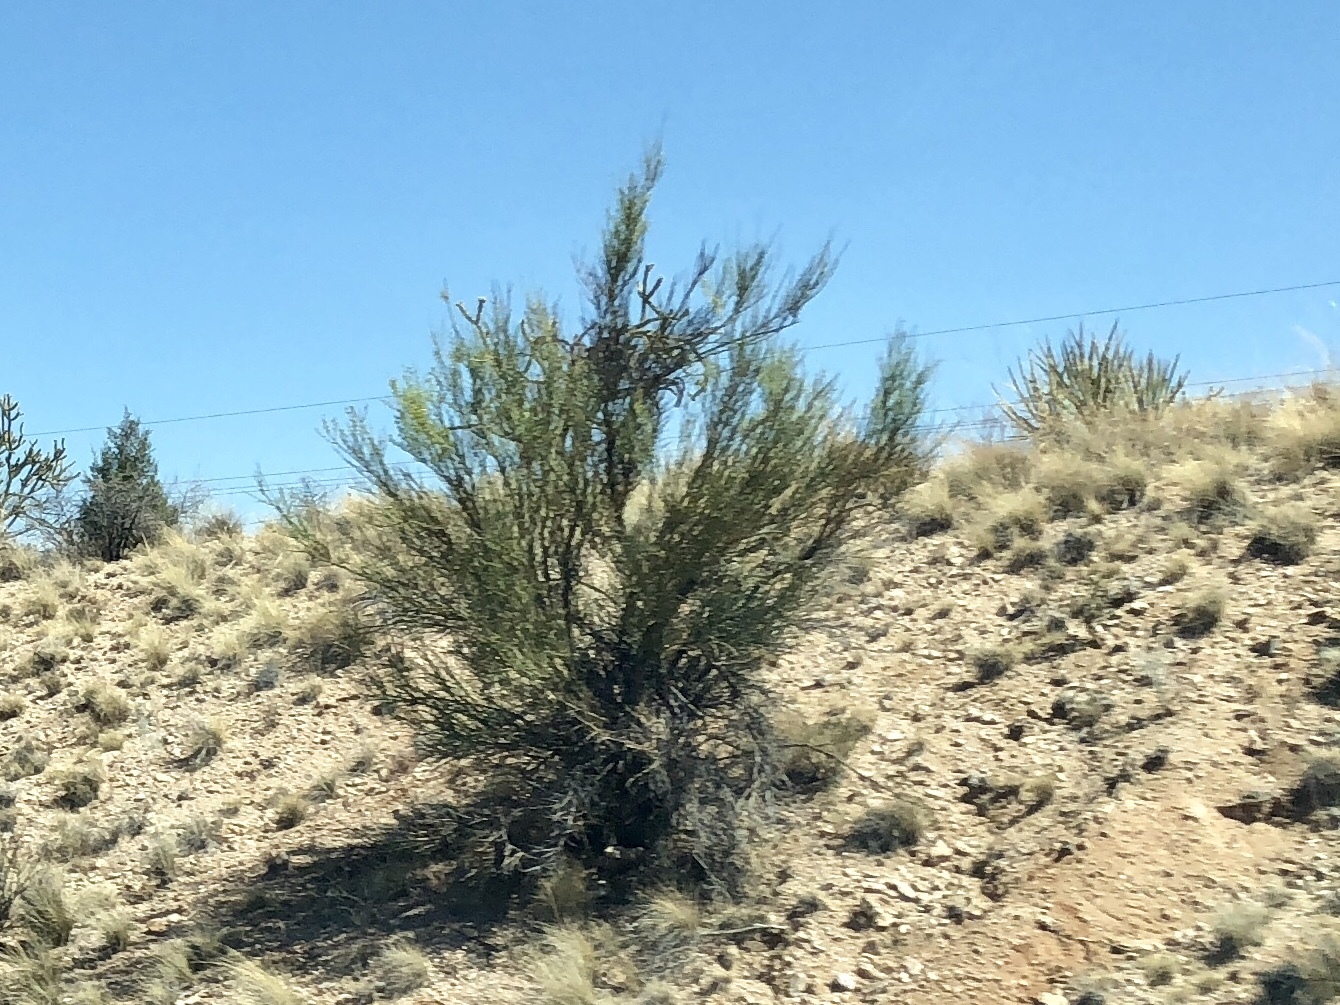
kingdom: Plantae
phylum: Tracheophyta
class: Magnoliopsida
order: Celastrales
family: Celastraceae
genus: Canotia
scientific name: Canotia holacantha
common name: Crucifixion thorns
